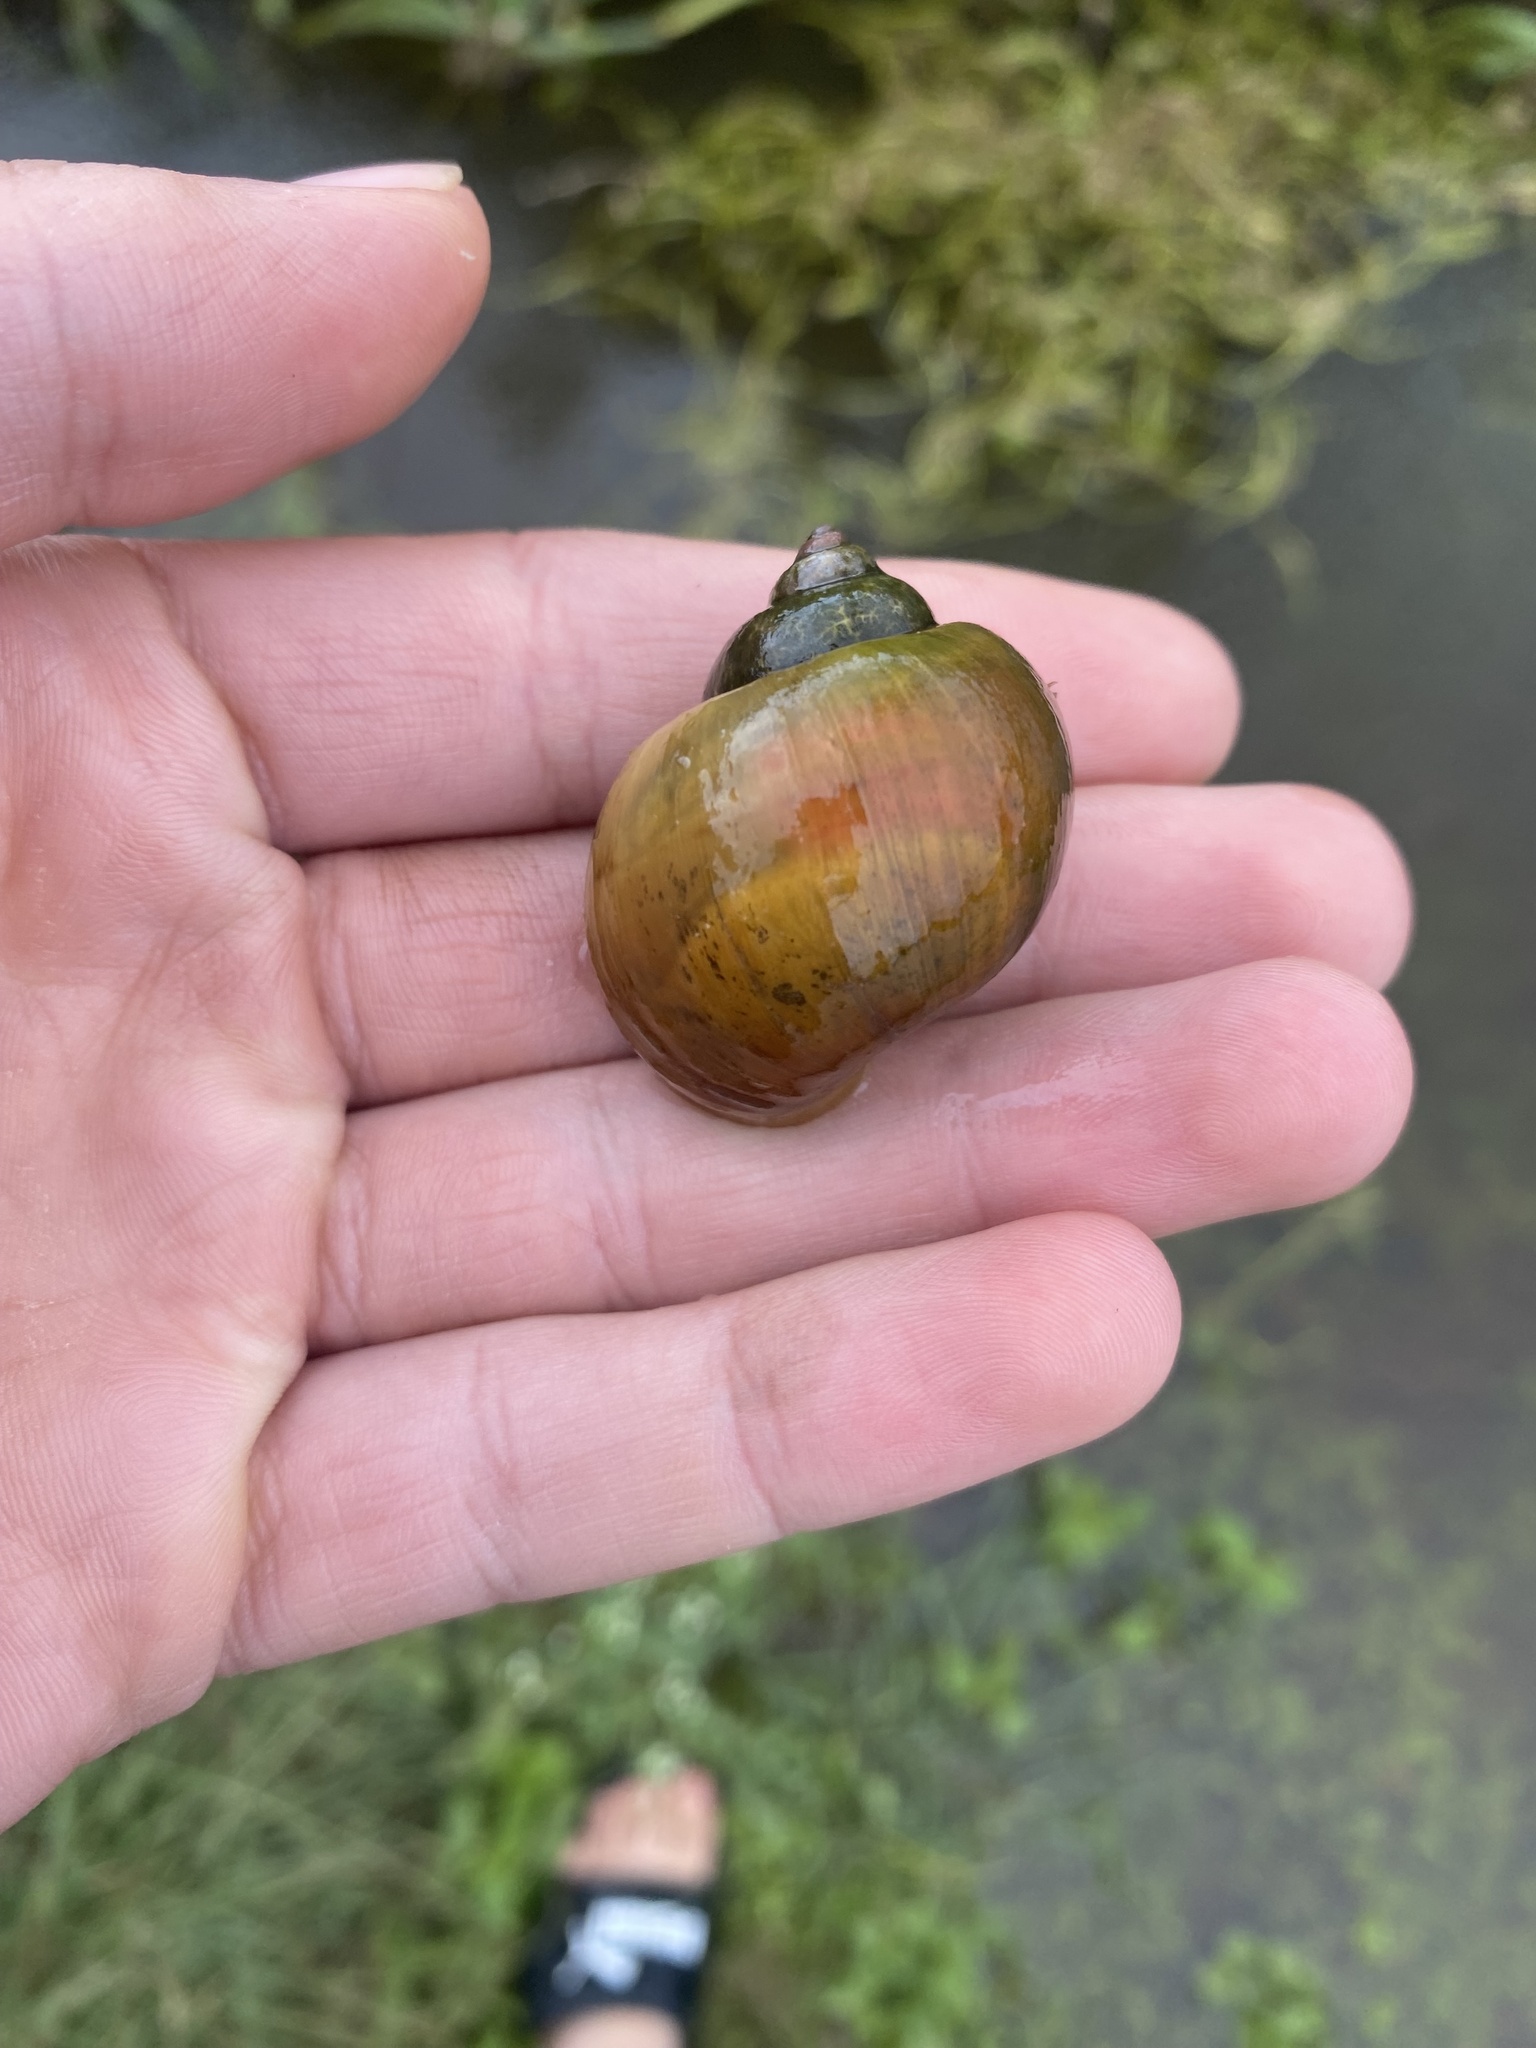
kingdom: Animalia
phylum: Mollusca
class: Gastropoda
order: Architaenioglossa
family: Ampullariidae
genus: Pomacea
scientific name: Pomacea canaliculata
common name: Channeled applesnail
